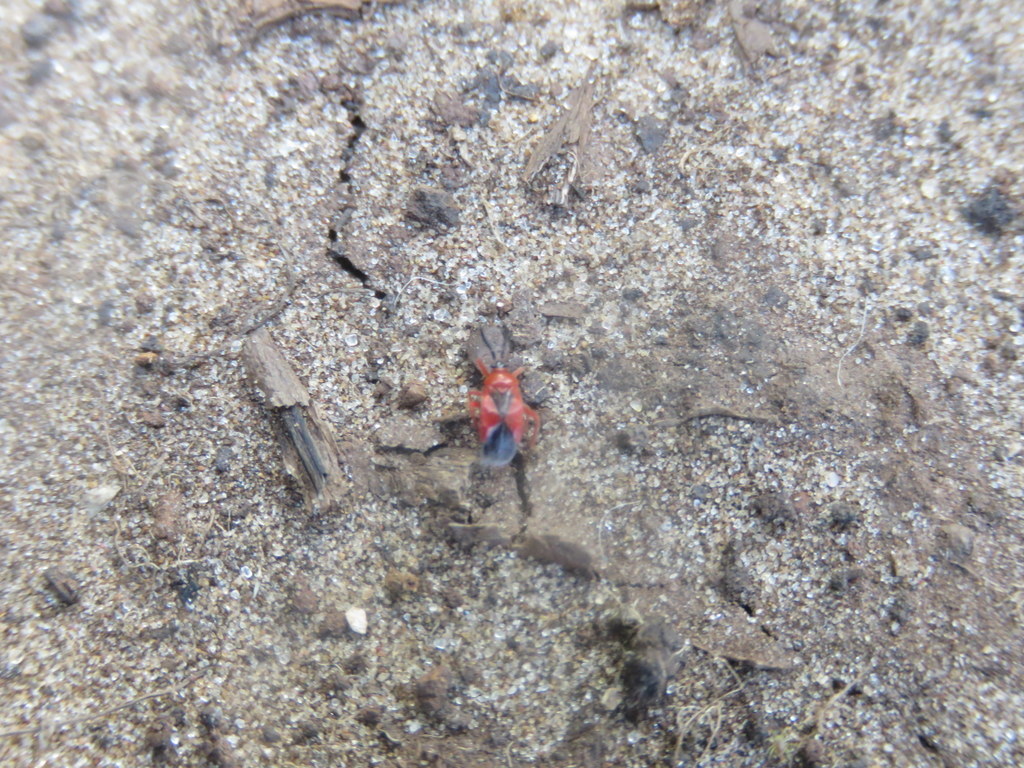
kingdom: Animalia
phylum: Arthropoda
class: Insecta
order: Hemiptera
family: Miridae
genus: Pachymerocerus
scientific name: Pachymerocerus erythronotus
